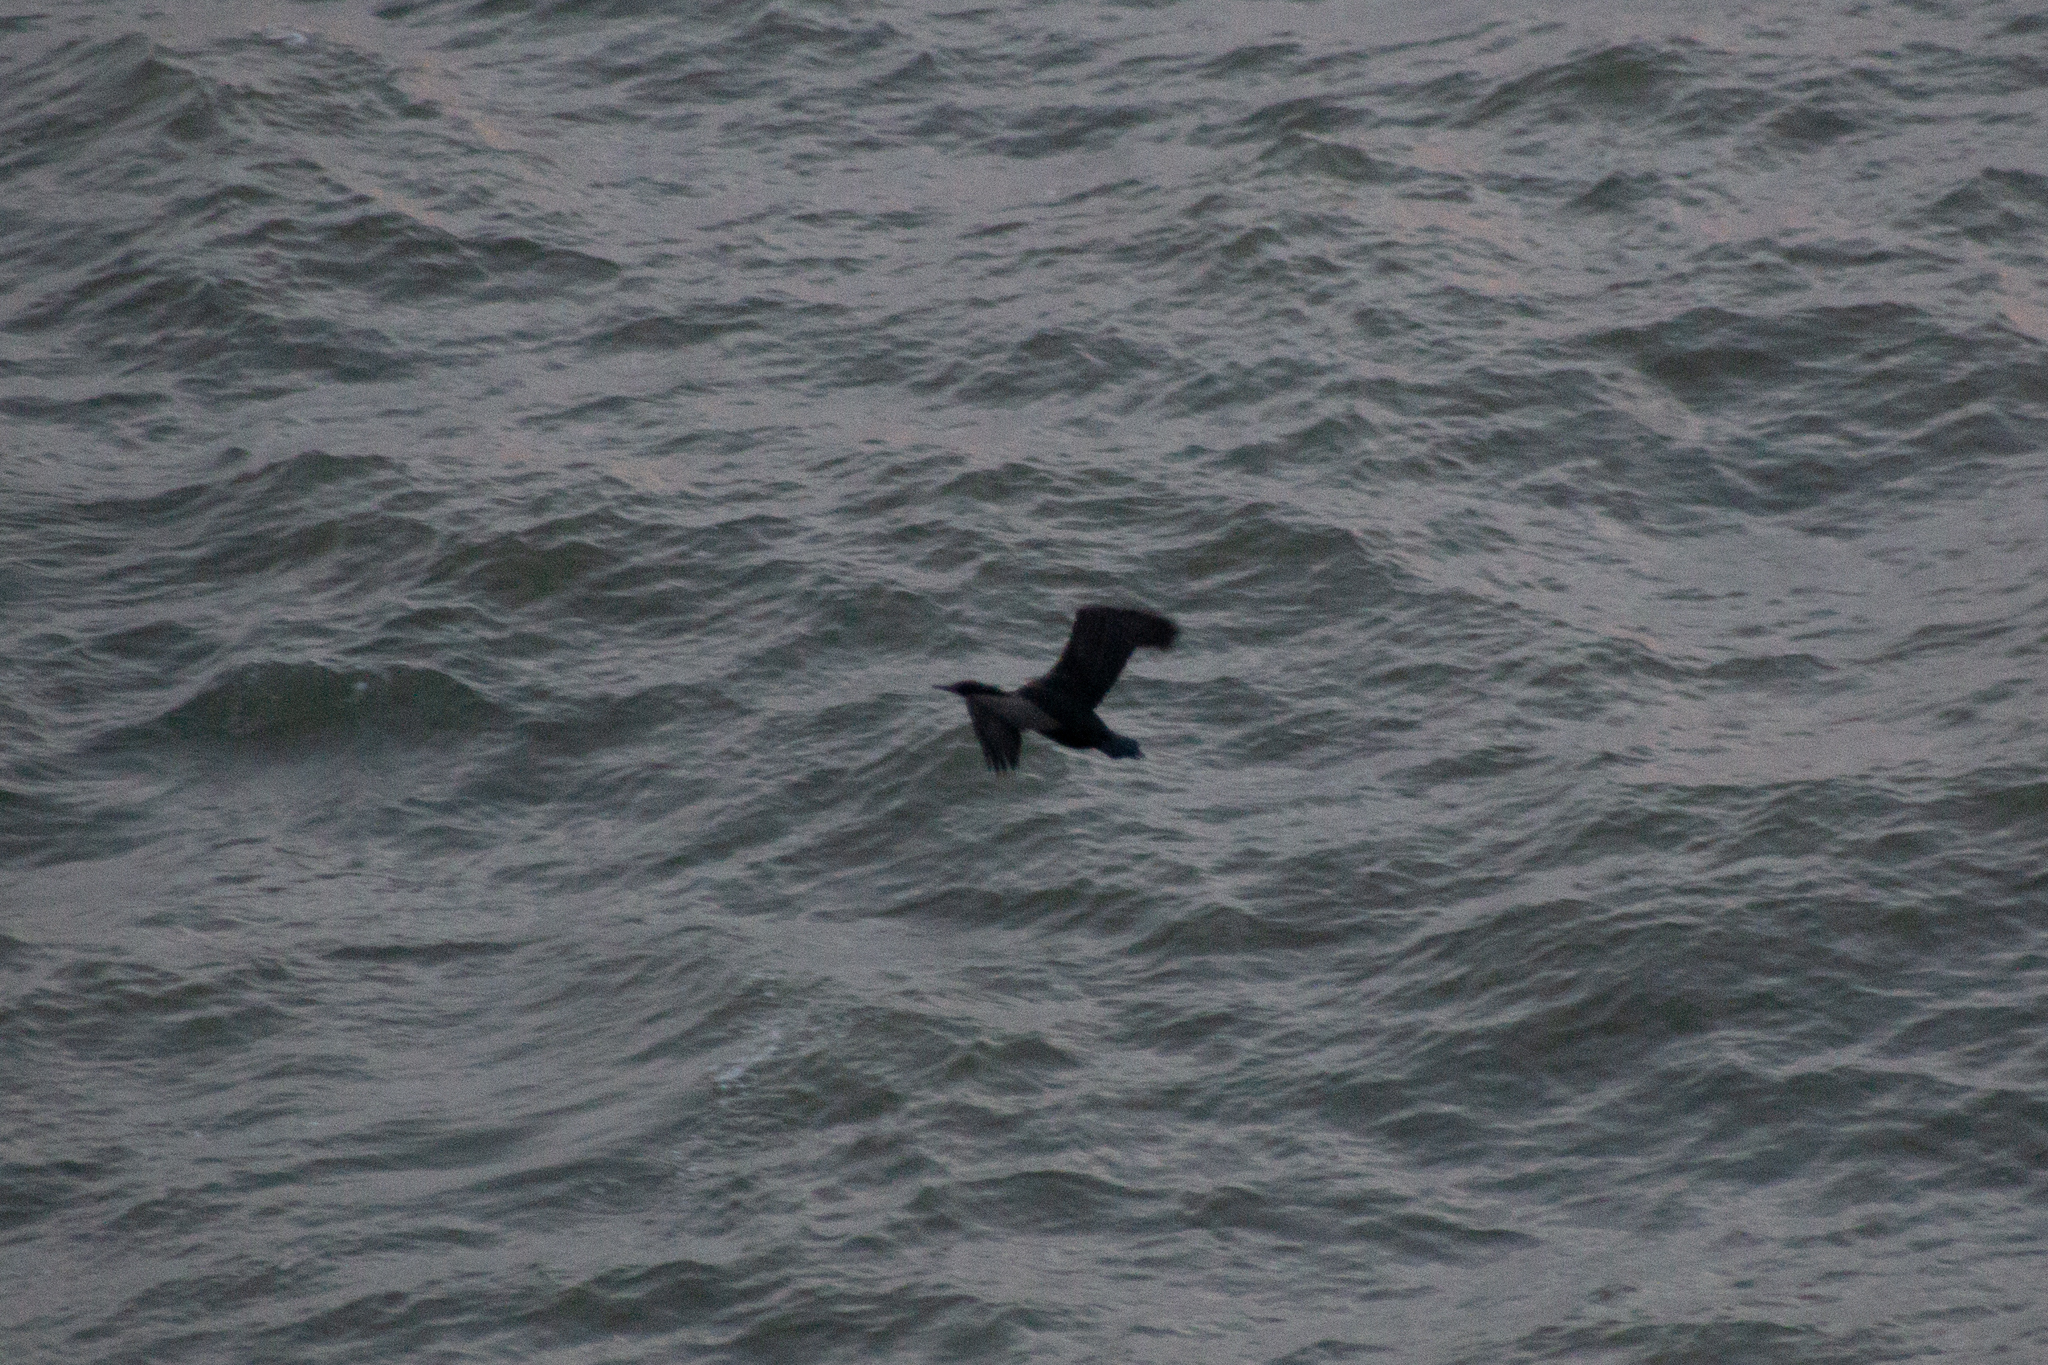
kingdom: Animalia
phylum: Chordata
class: Aves
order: Suliformes
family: Phalacrocoracidae
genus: Urile
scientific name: Urile penicillatus
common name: Brandt's cormorant
